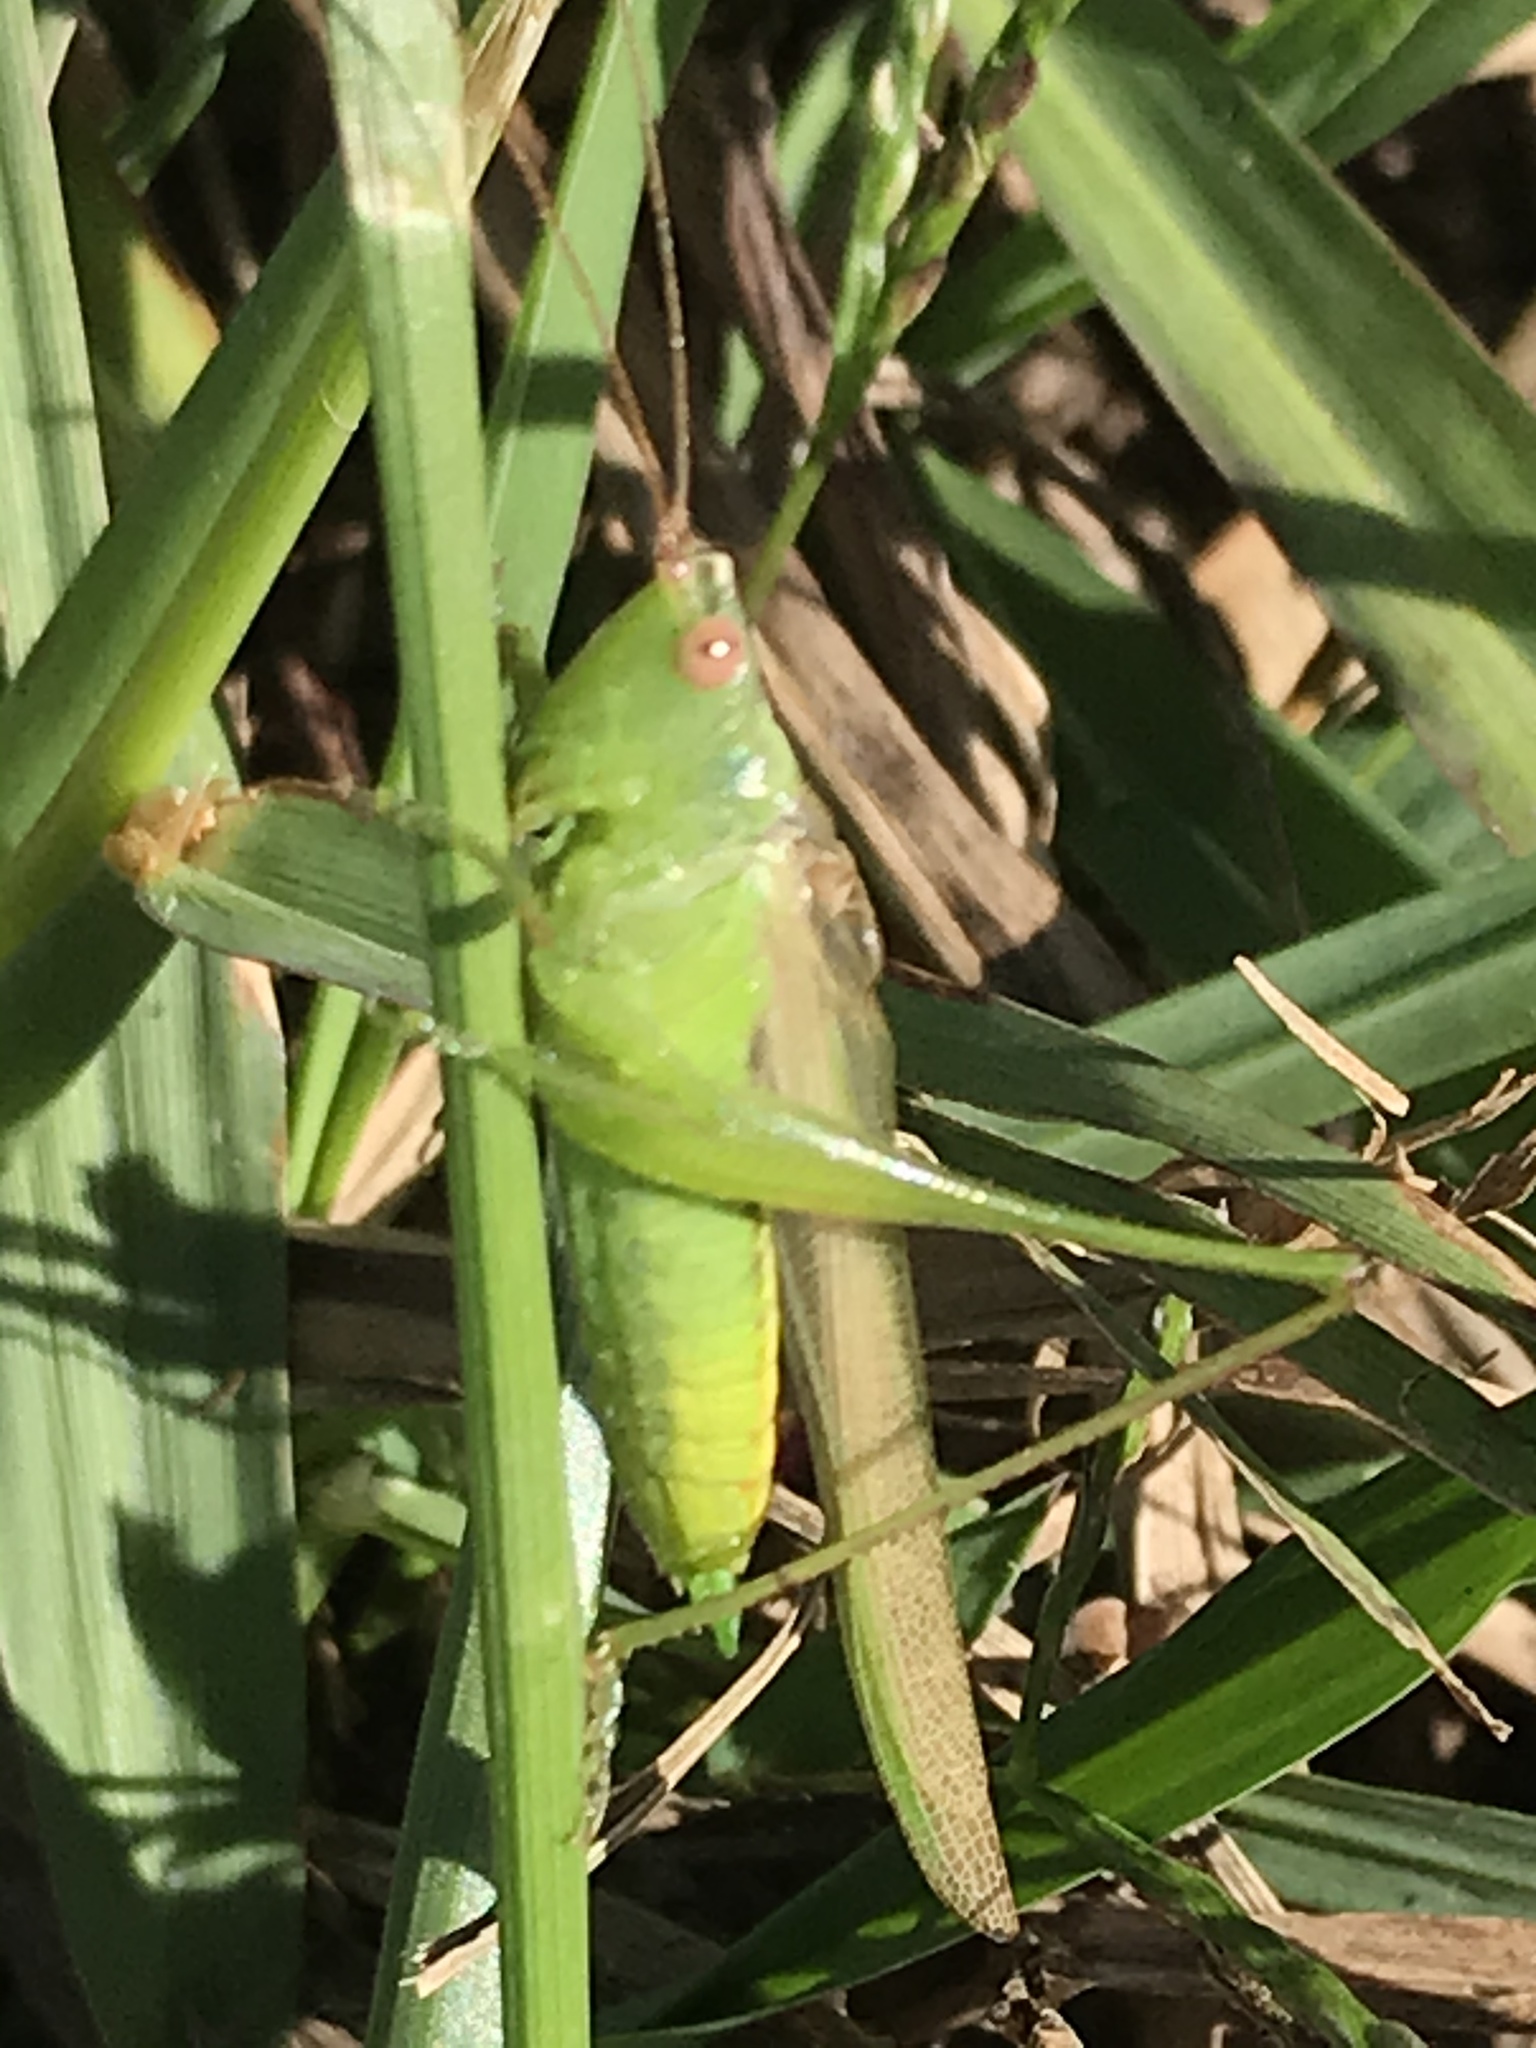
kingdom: Animalia
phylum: Arthropoda
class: Insecta
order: Orthoptera
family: Tettigoniidae
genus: Conocephalus
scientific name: Conocephalus fasciatus
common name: Slender meadow katydid
